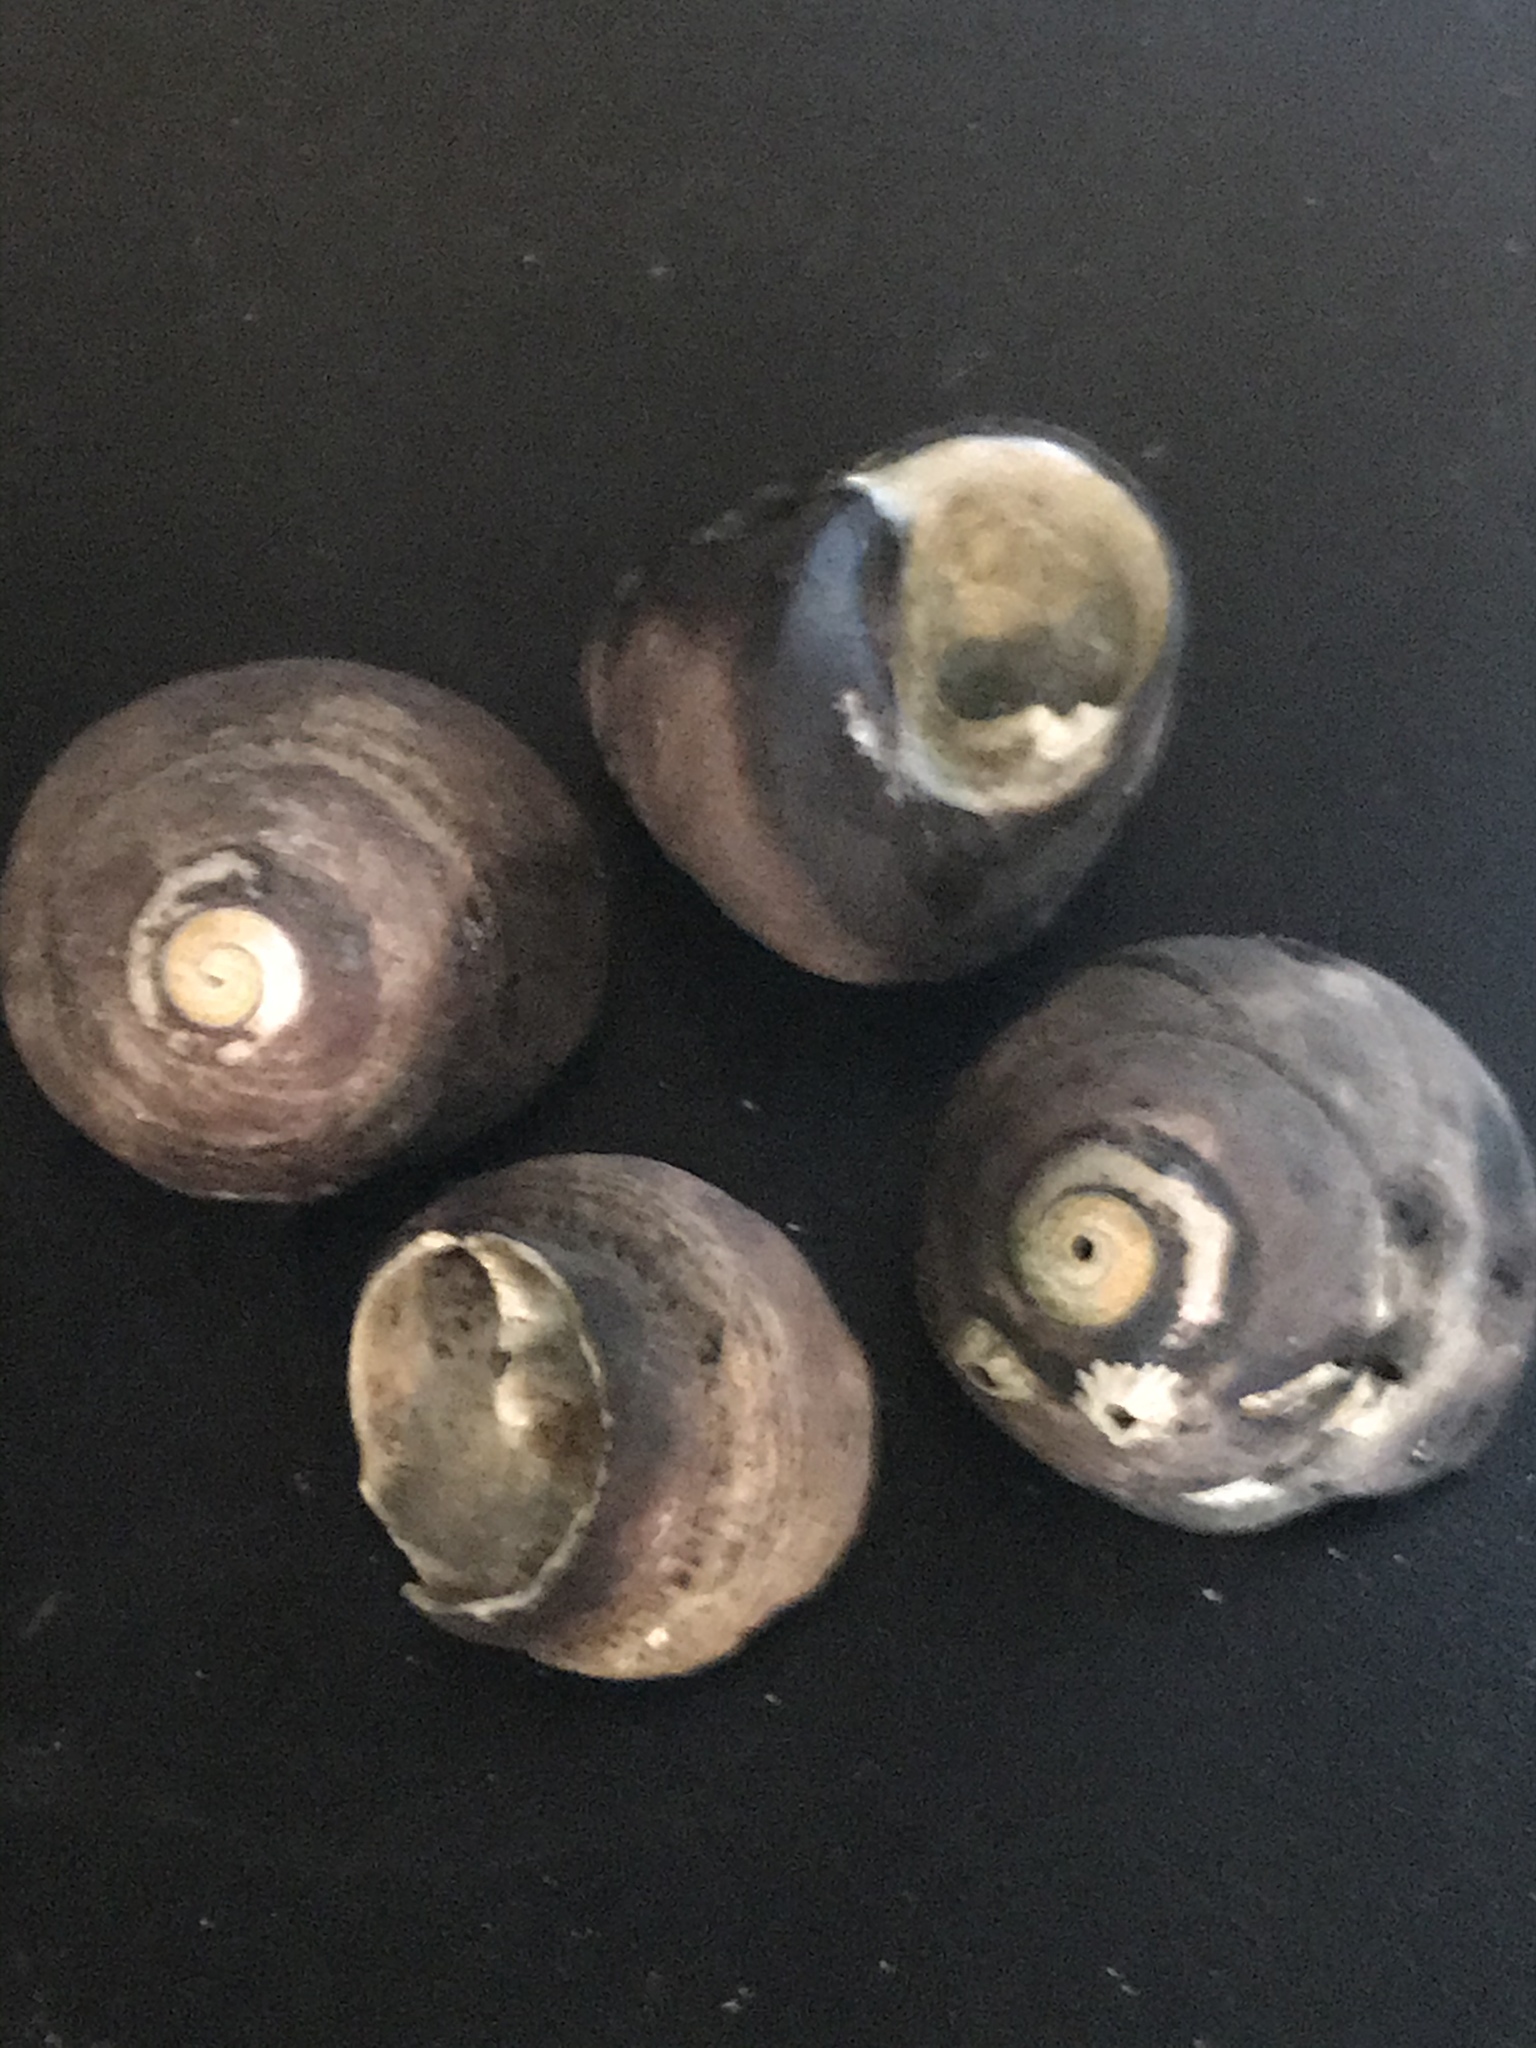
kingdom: Animalia
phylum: Mollusca
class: Gastropoda
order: Trochida
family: Tegulidae
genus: Tegula
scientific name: Tegula funebralis
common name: Black tegula
